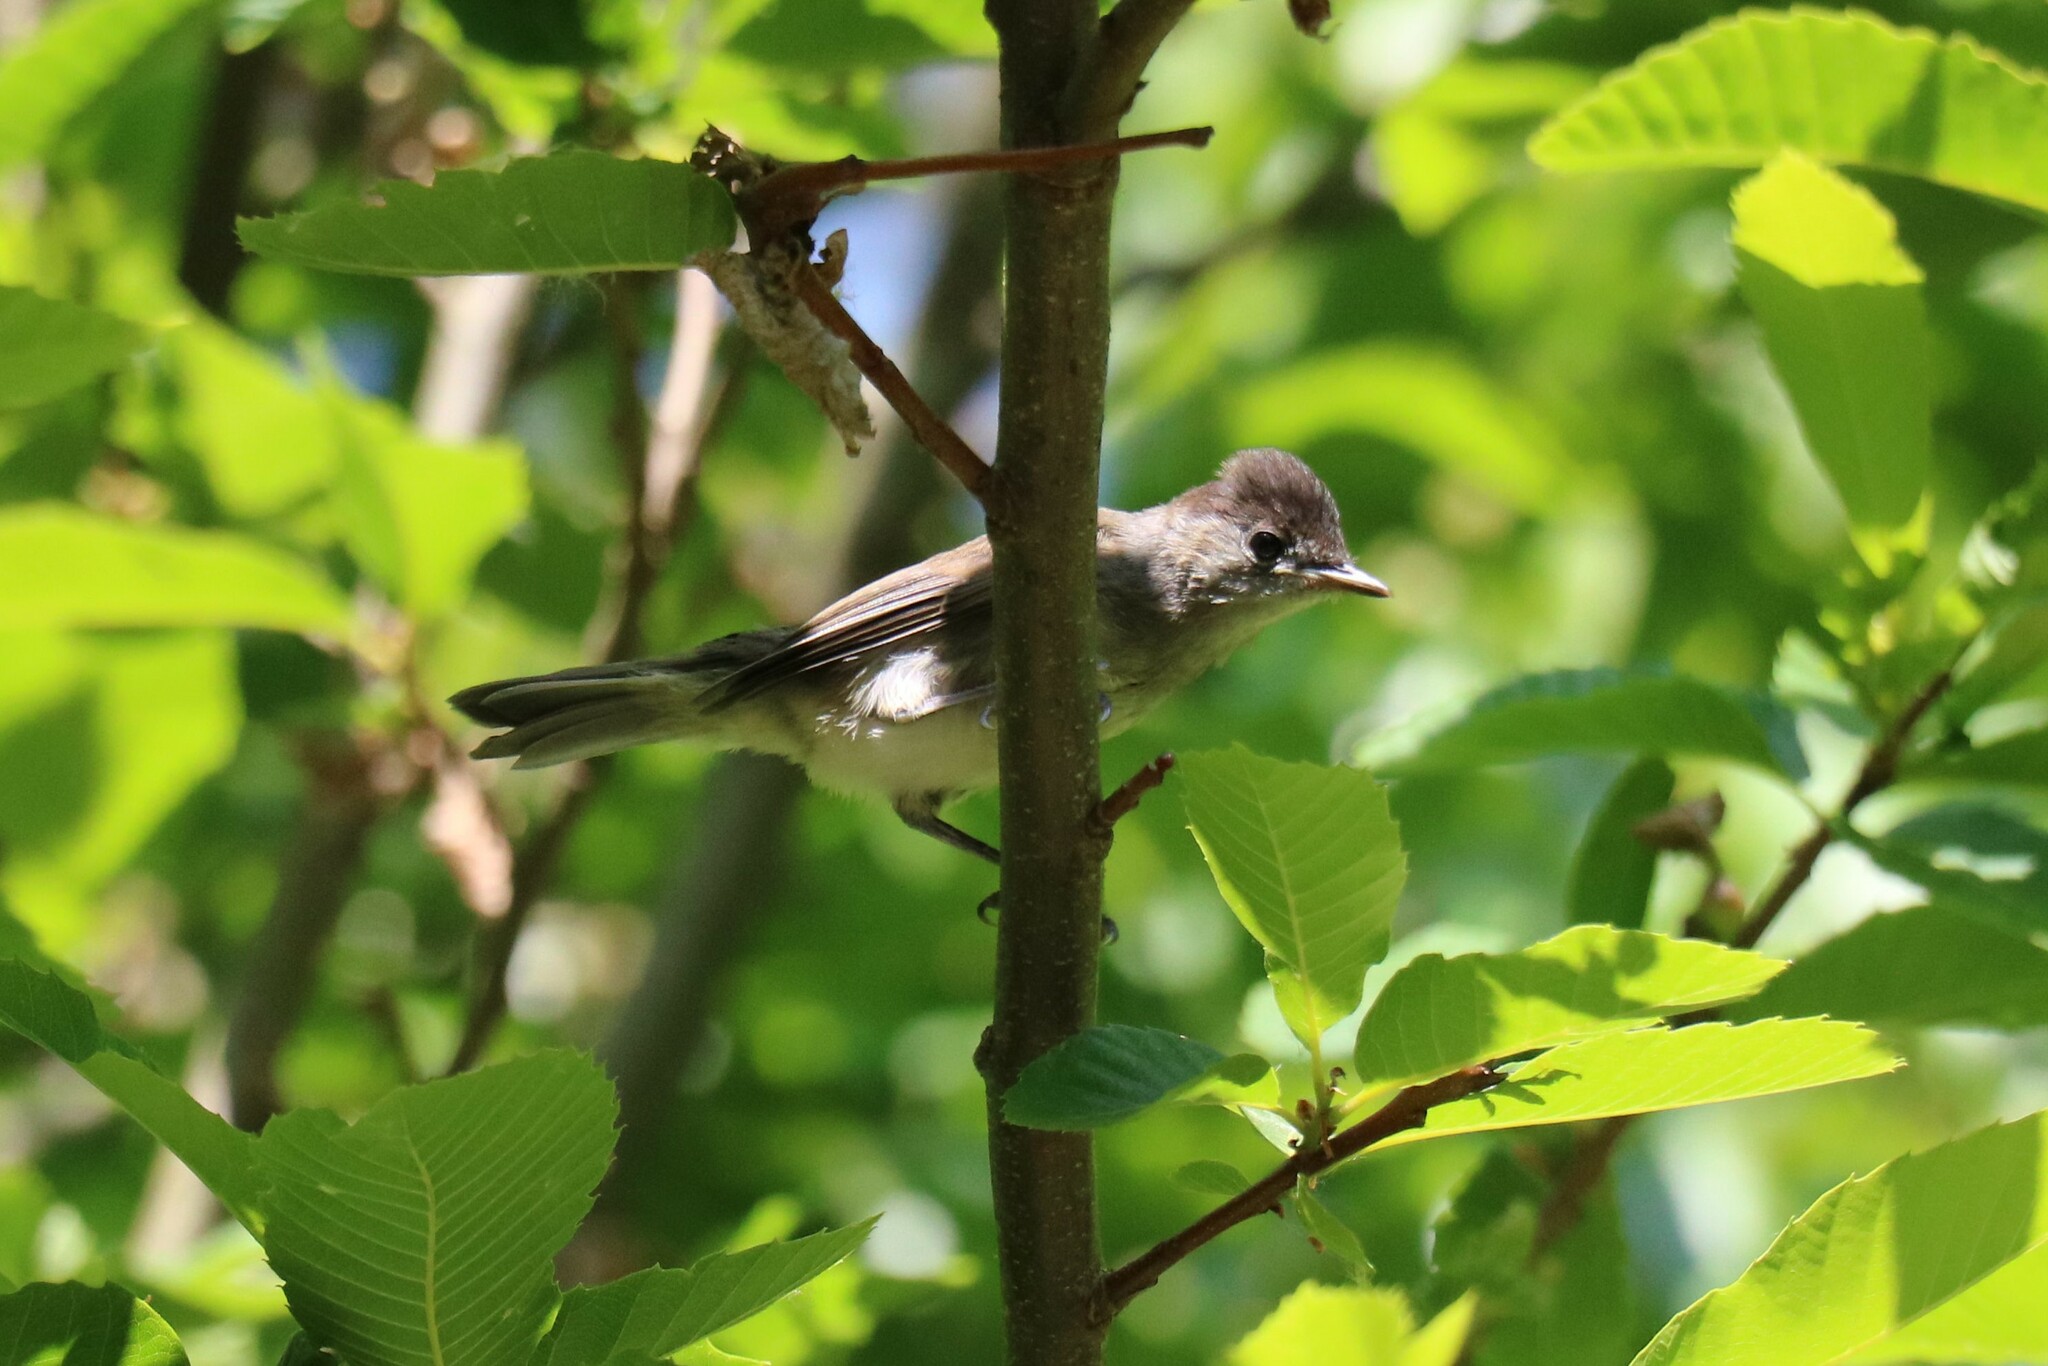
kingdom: Animalia
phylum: Chordata
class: Aves
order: Passeriformes
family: Sylviidae
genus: Sylvia
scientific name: Sylvia atricapilla
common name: Eurasian blackcap
